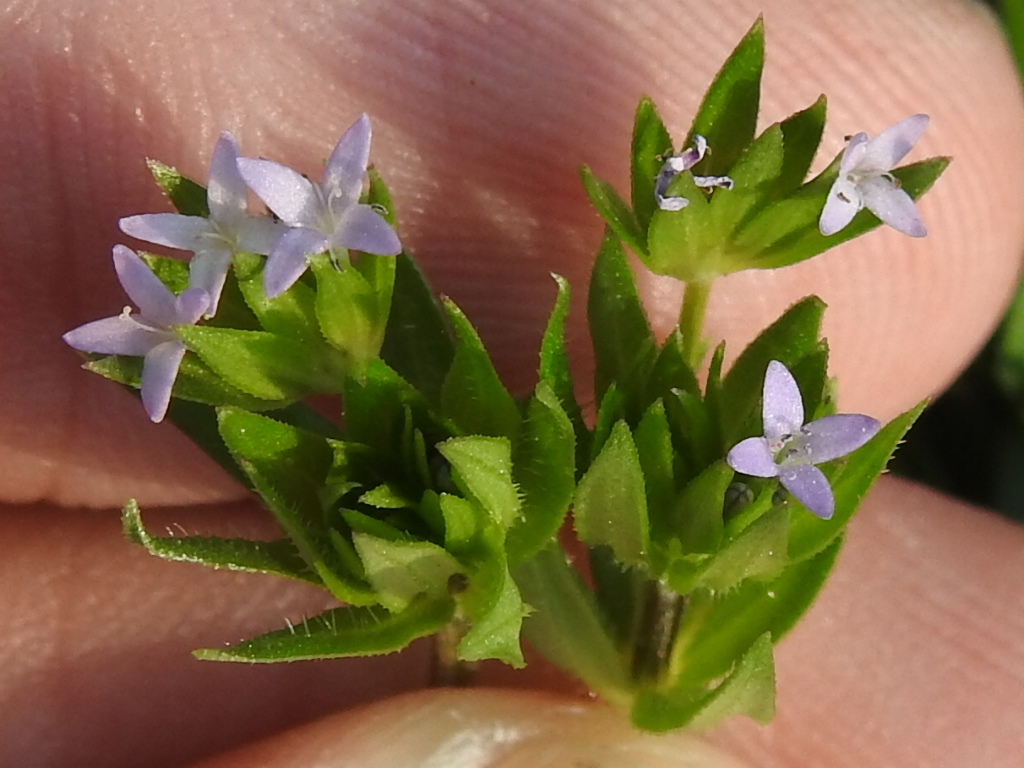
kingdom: Plantae
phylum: Tracheophyta
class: Magnoliopsida
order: Gentianales
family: Rubiaceae
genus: Sherardia
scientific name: Sherardia arvensis
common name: Field madder
